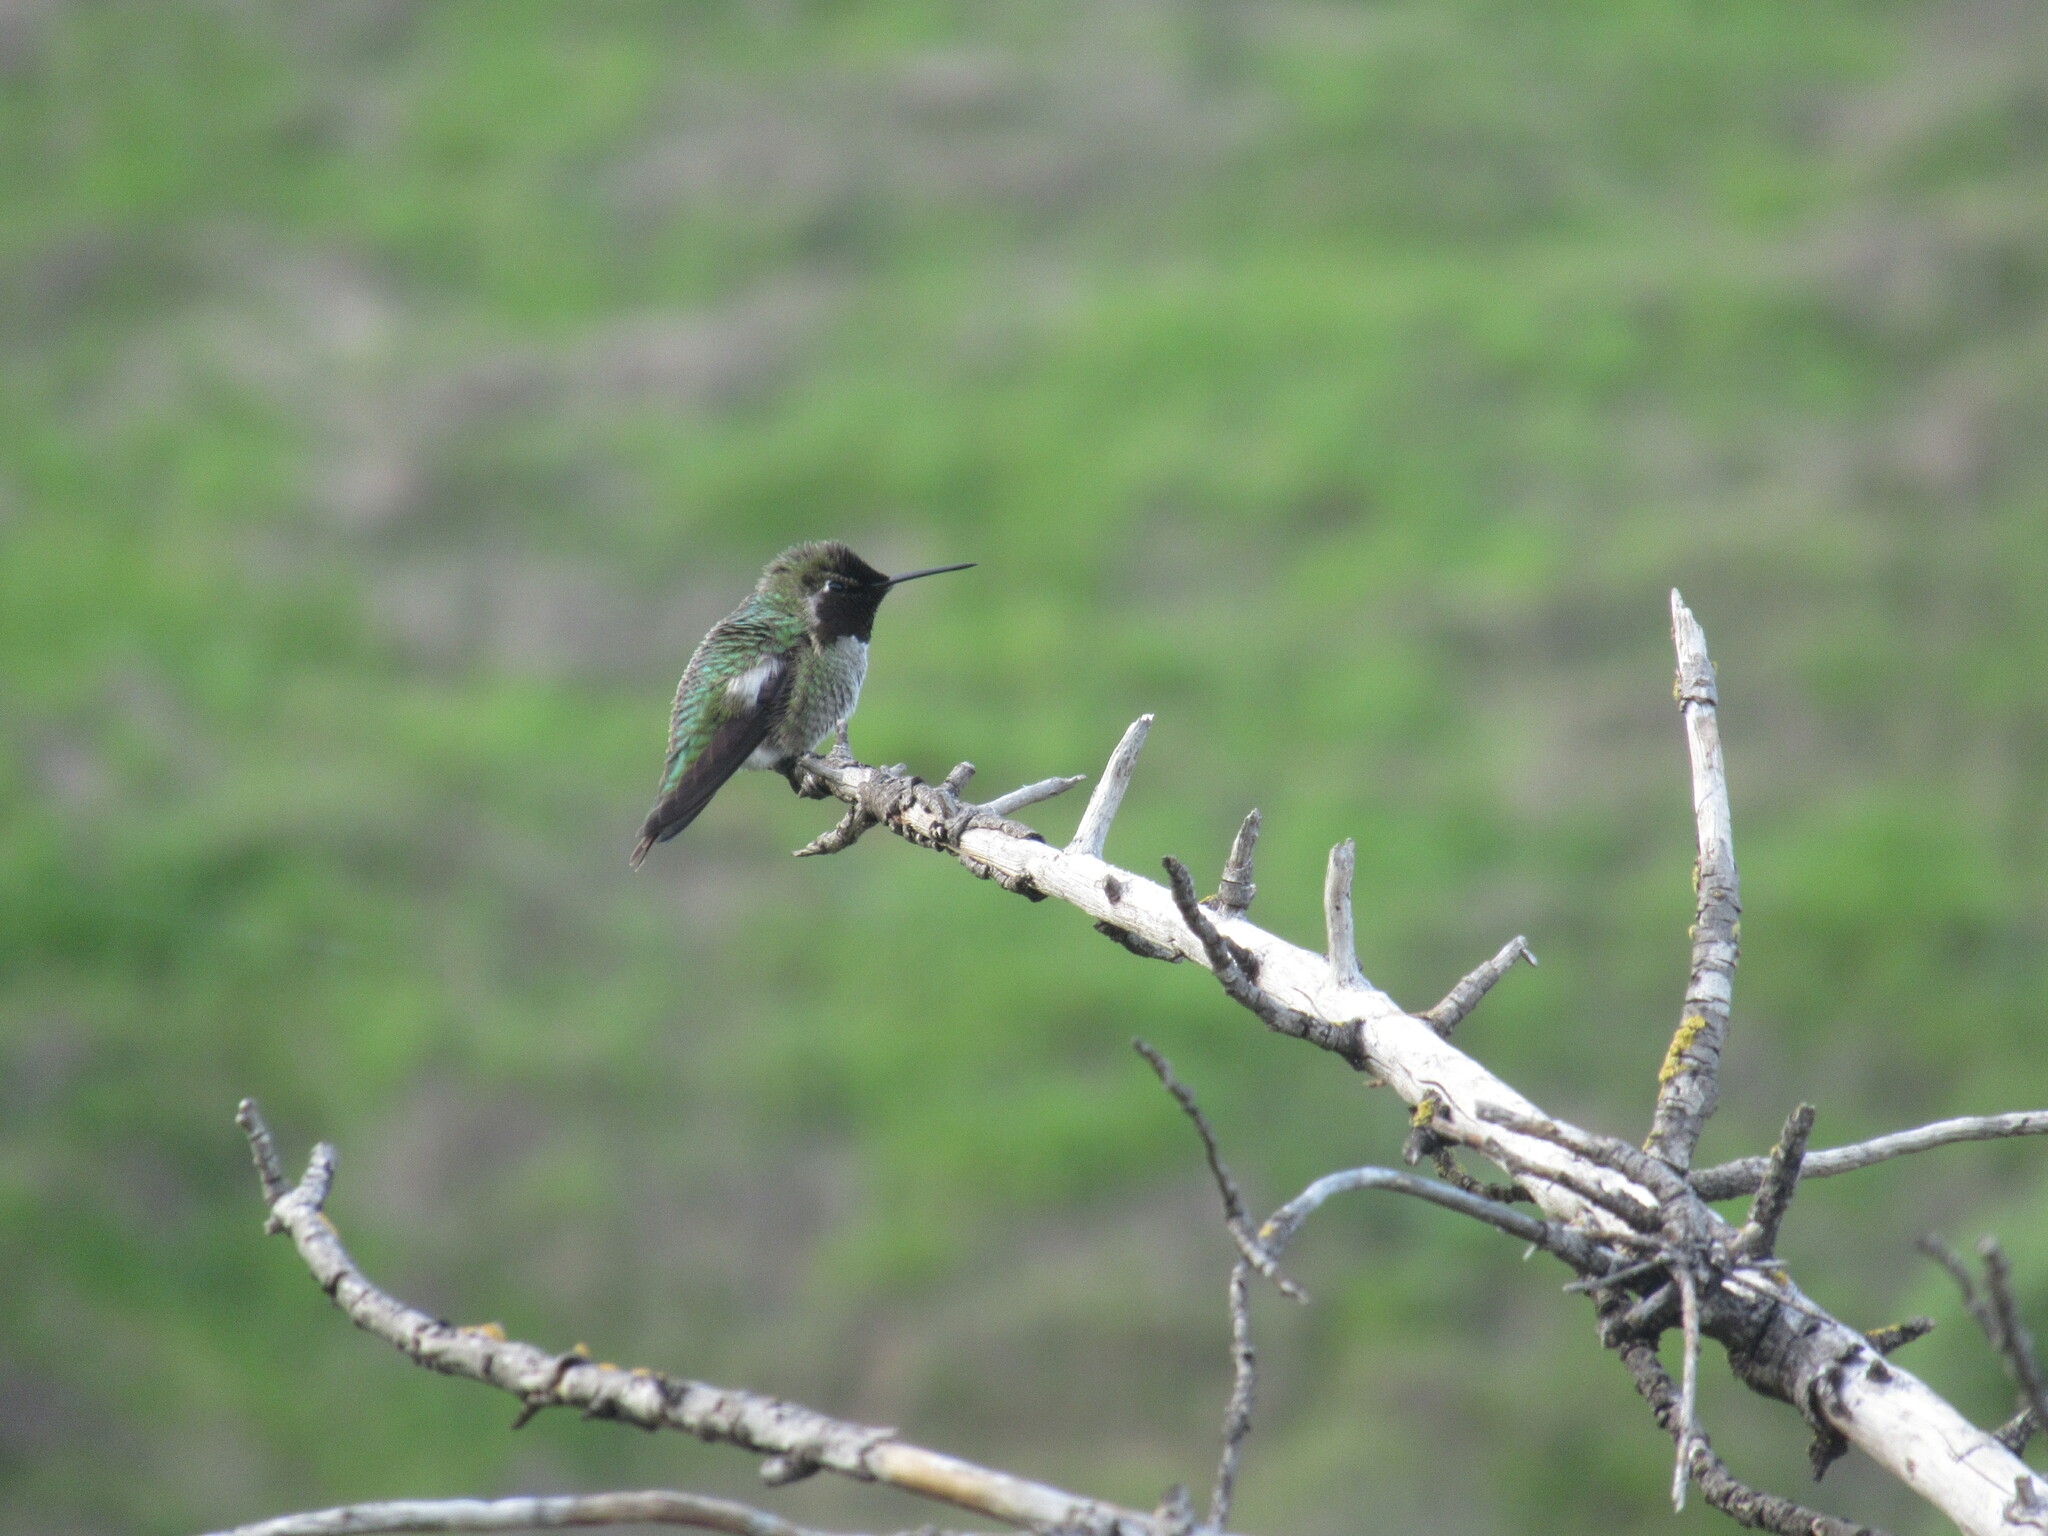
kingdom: Animalia
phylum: Chordata
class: Aves
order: Apodiformes
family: Trochilidae
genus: Calypte
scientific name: Calypte anna
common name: Anna's hummingbird
